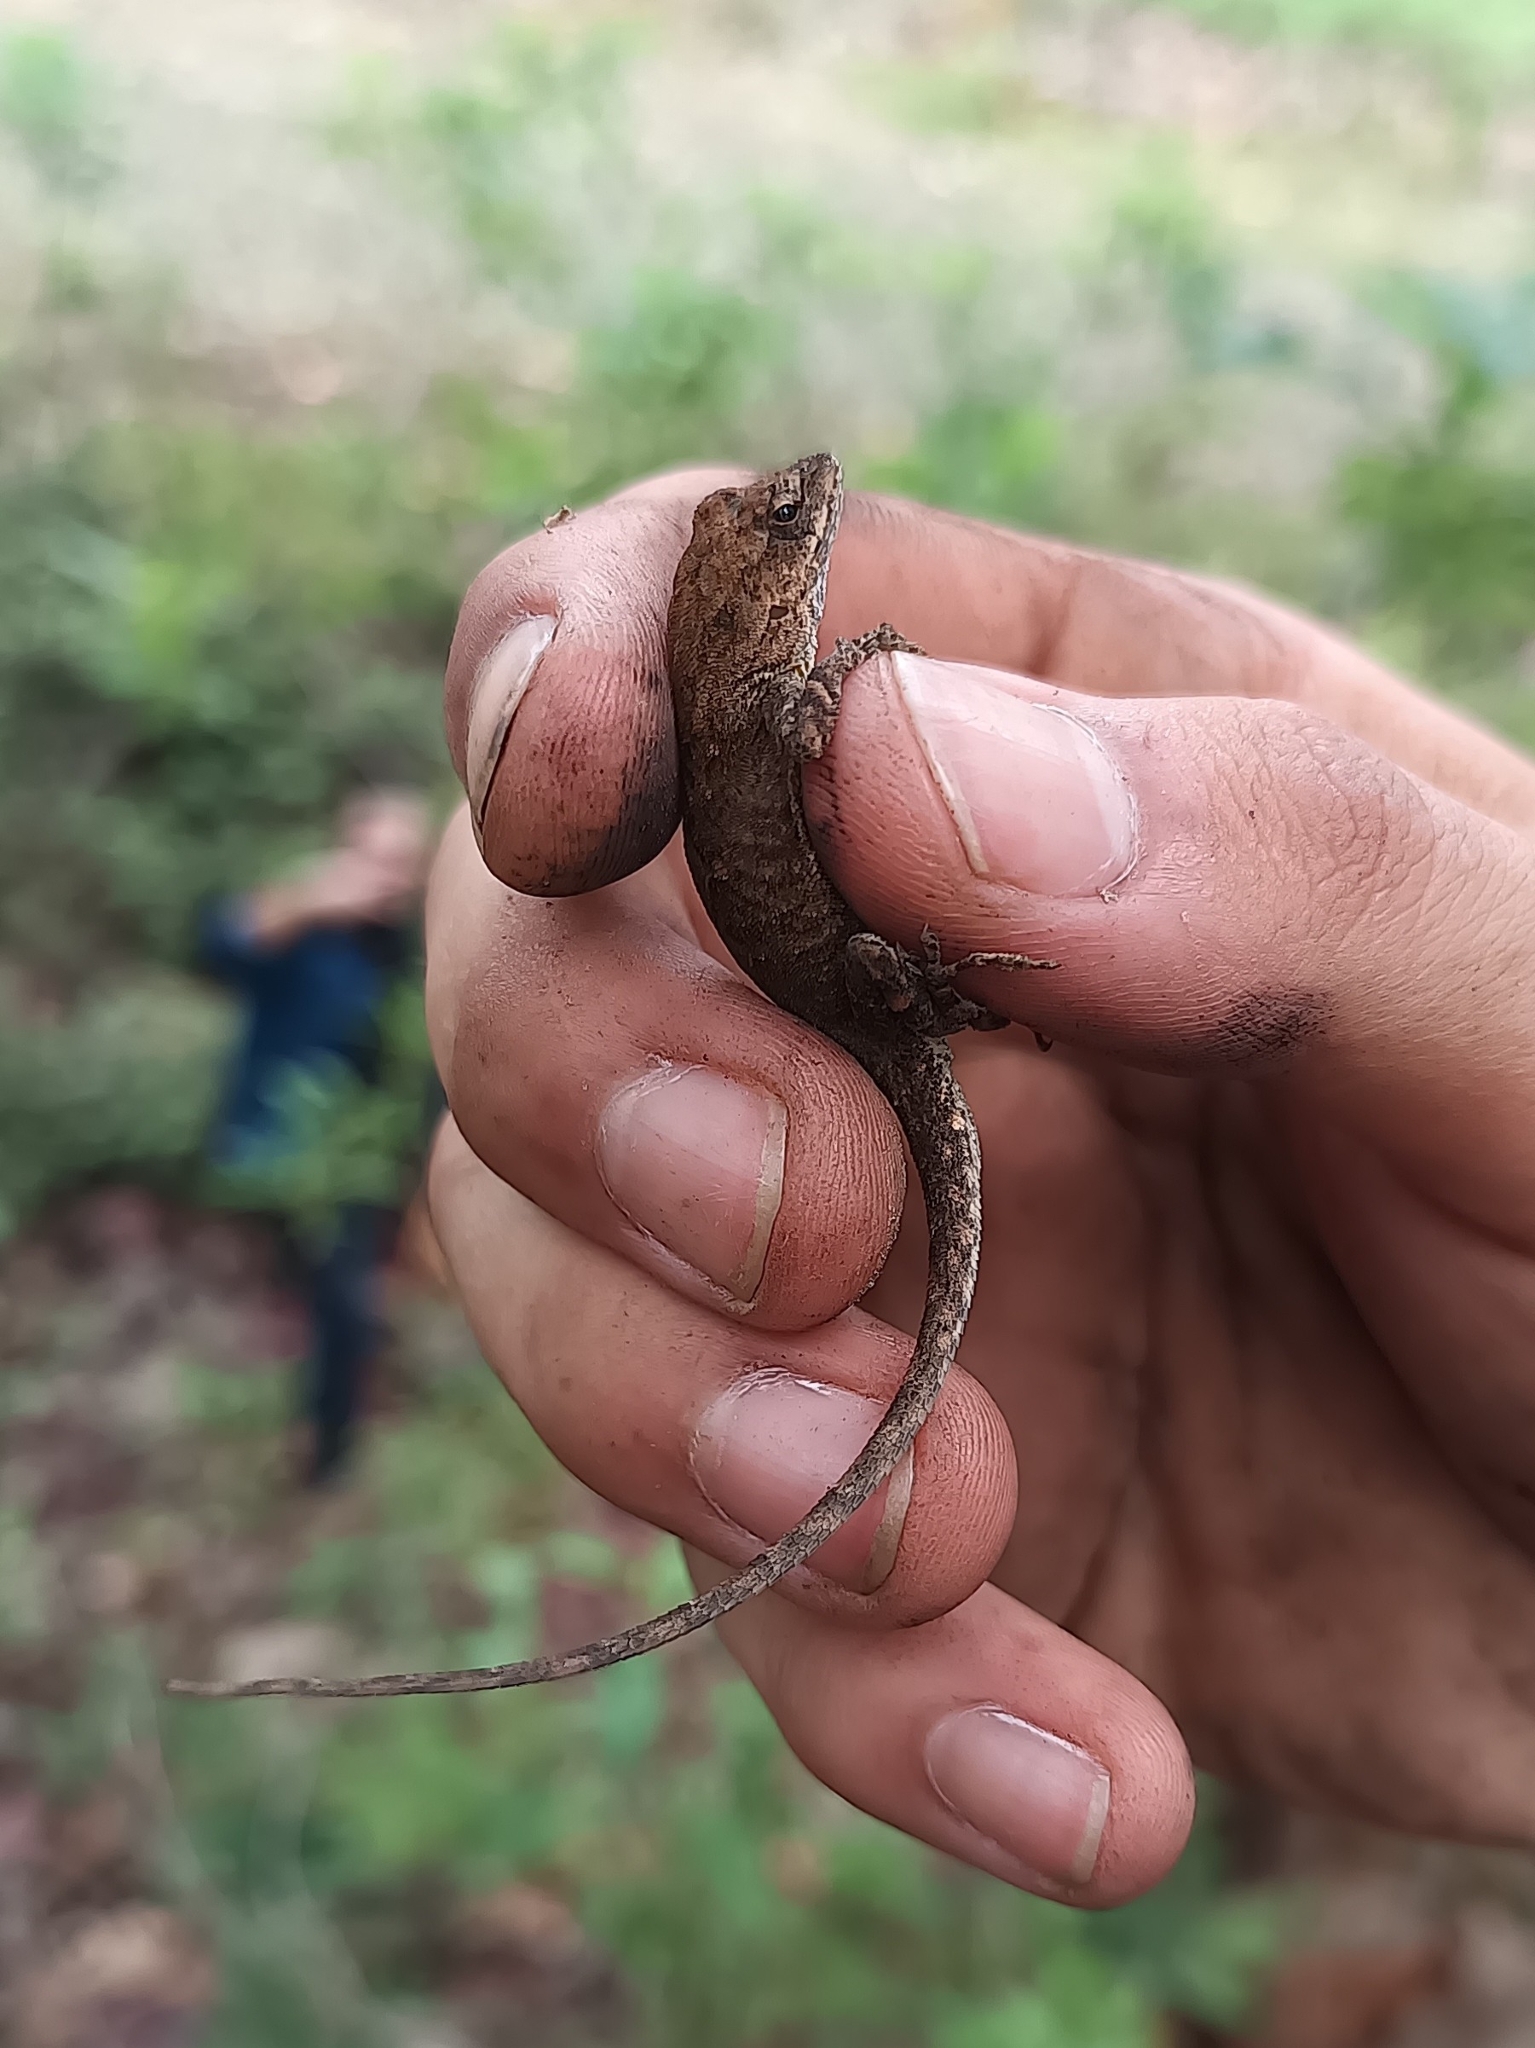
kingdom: Animalia
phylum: Chordata
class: Squamata
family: Dactyloidae
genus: Anolis
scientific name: Anolis nebulosus
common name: Clouded anole
